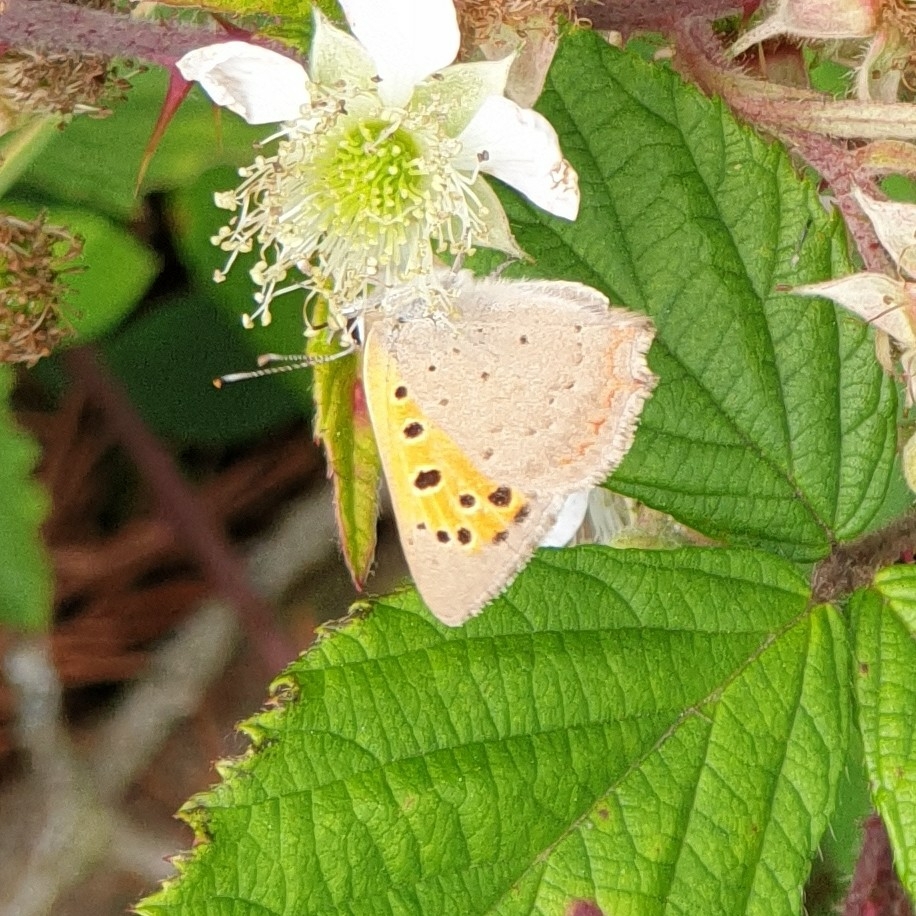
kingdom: Animalia
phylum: Arthropoda
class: Insecta
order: Lepidoptera
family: Lycaenidae
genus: Lycaena
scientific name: Lycaena phlaeas
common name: Small copper
